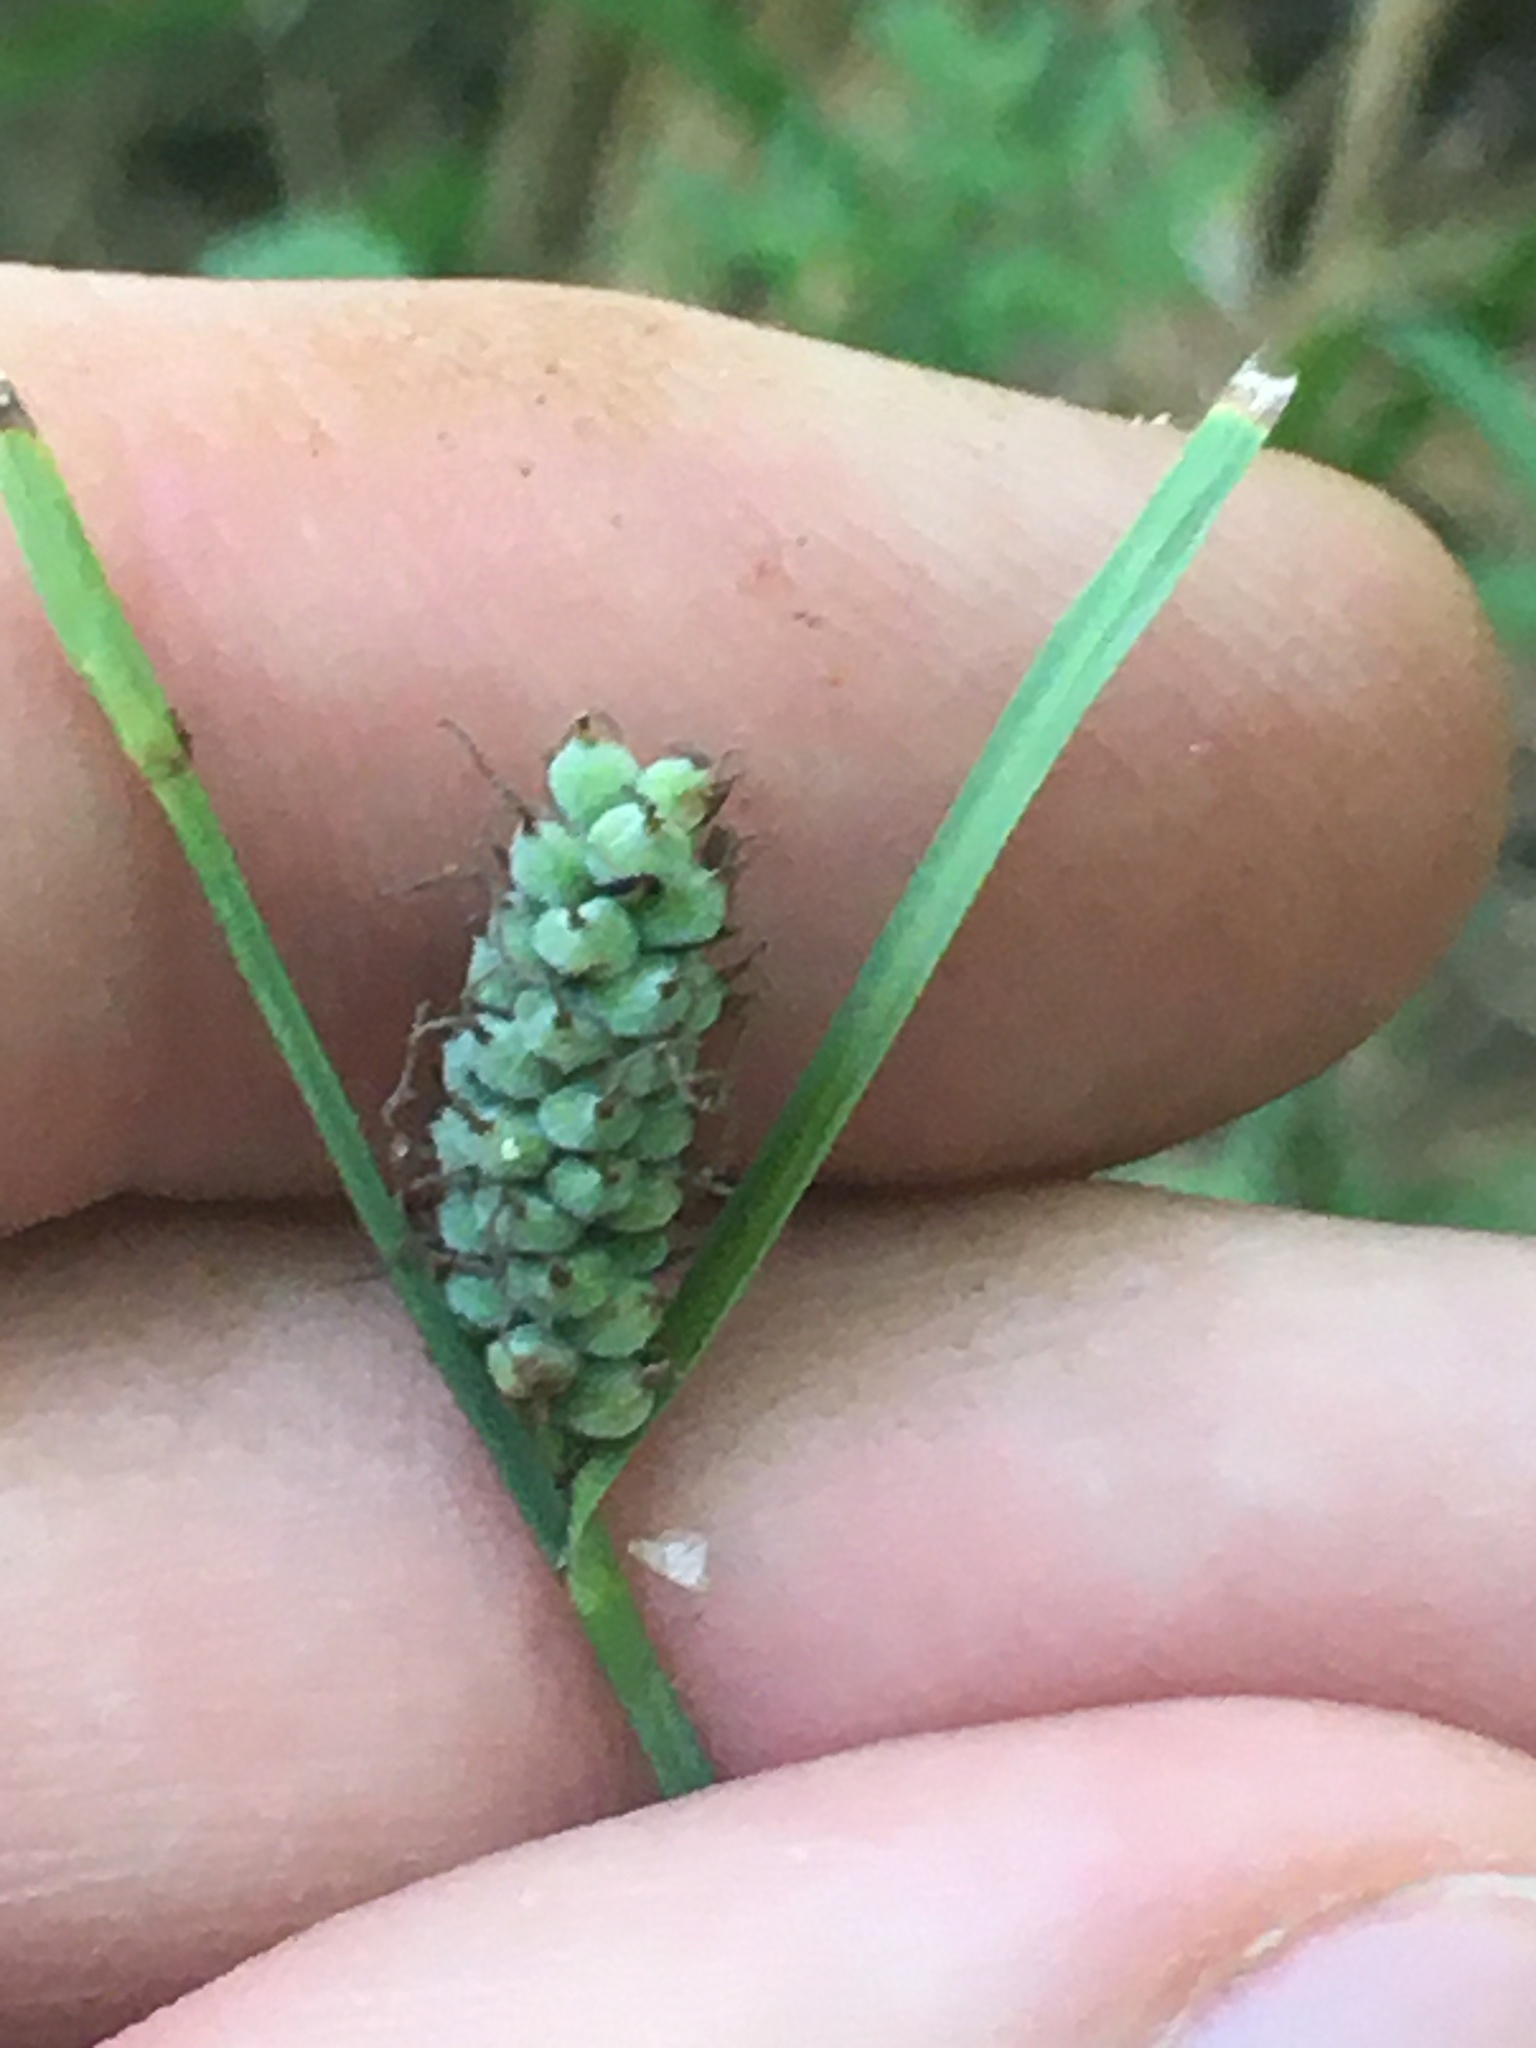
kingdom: Plantae
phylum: Tracheophyta
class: Liliopsida
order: Poales
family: Cyperaceae
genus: Carex
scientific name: Carex tomentosa
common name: Downy-fruited sedge
